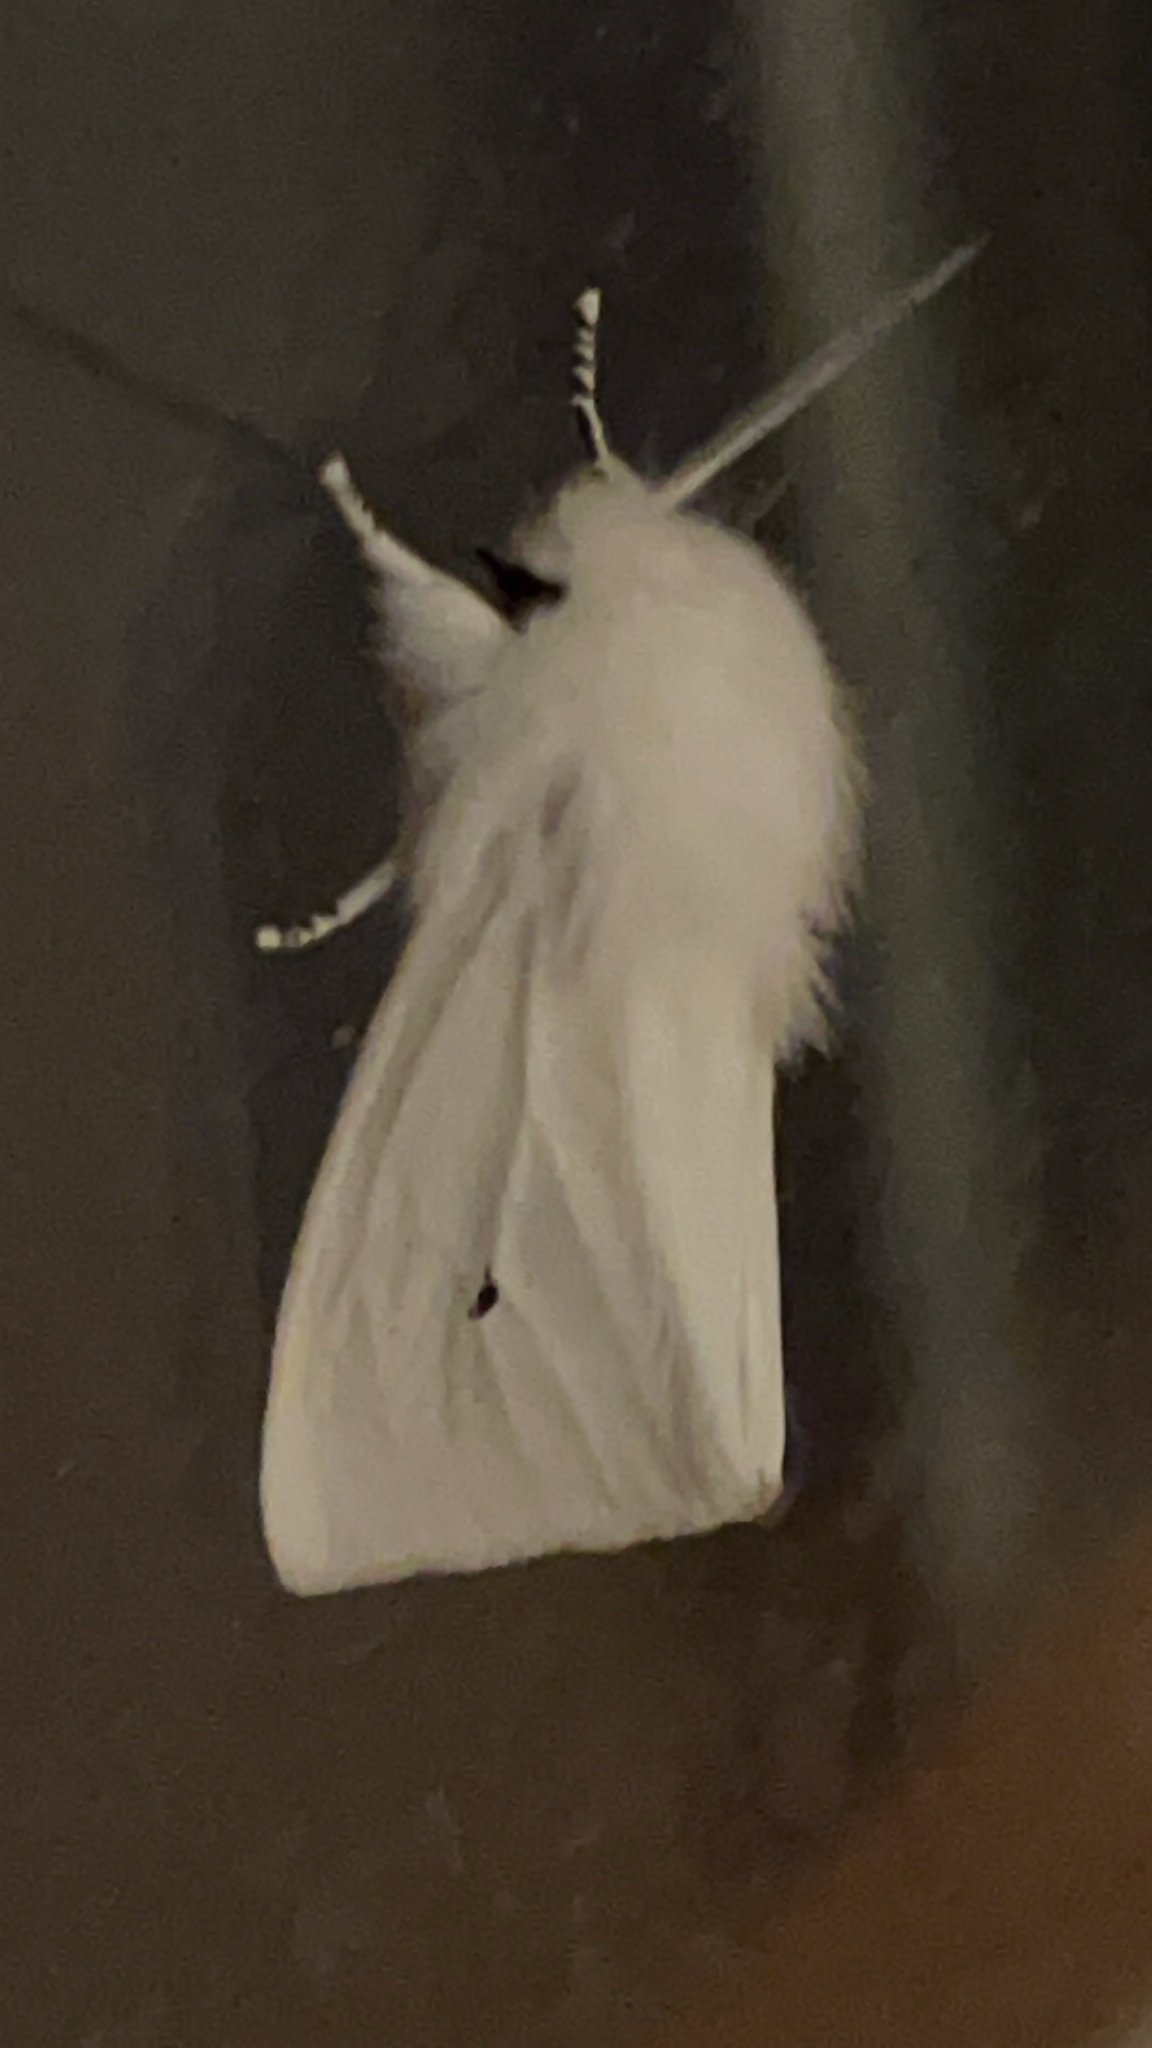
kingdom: Animalia
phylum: Arthropoda
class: Insecta
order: Lepidoptera
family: Erebidae
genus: Spilosoma
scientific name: Spilosoma virginica
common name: Virginia tiger moth
